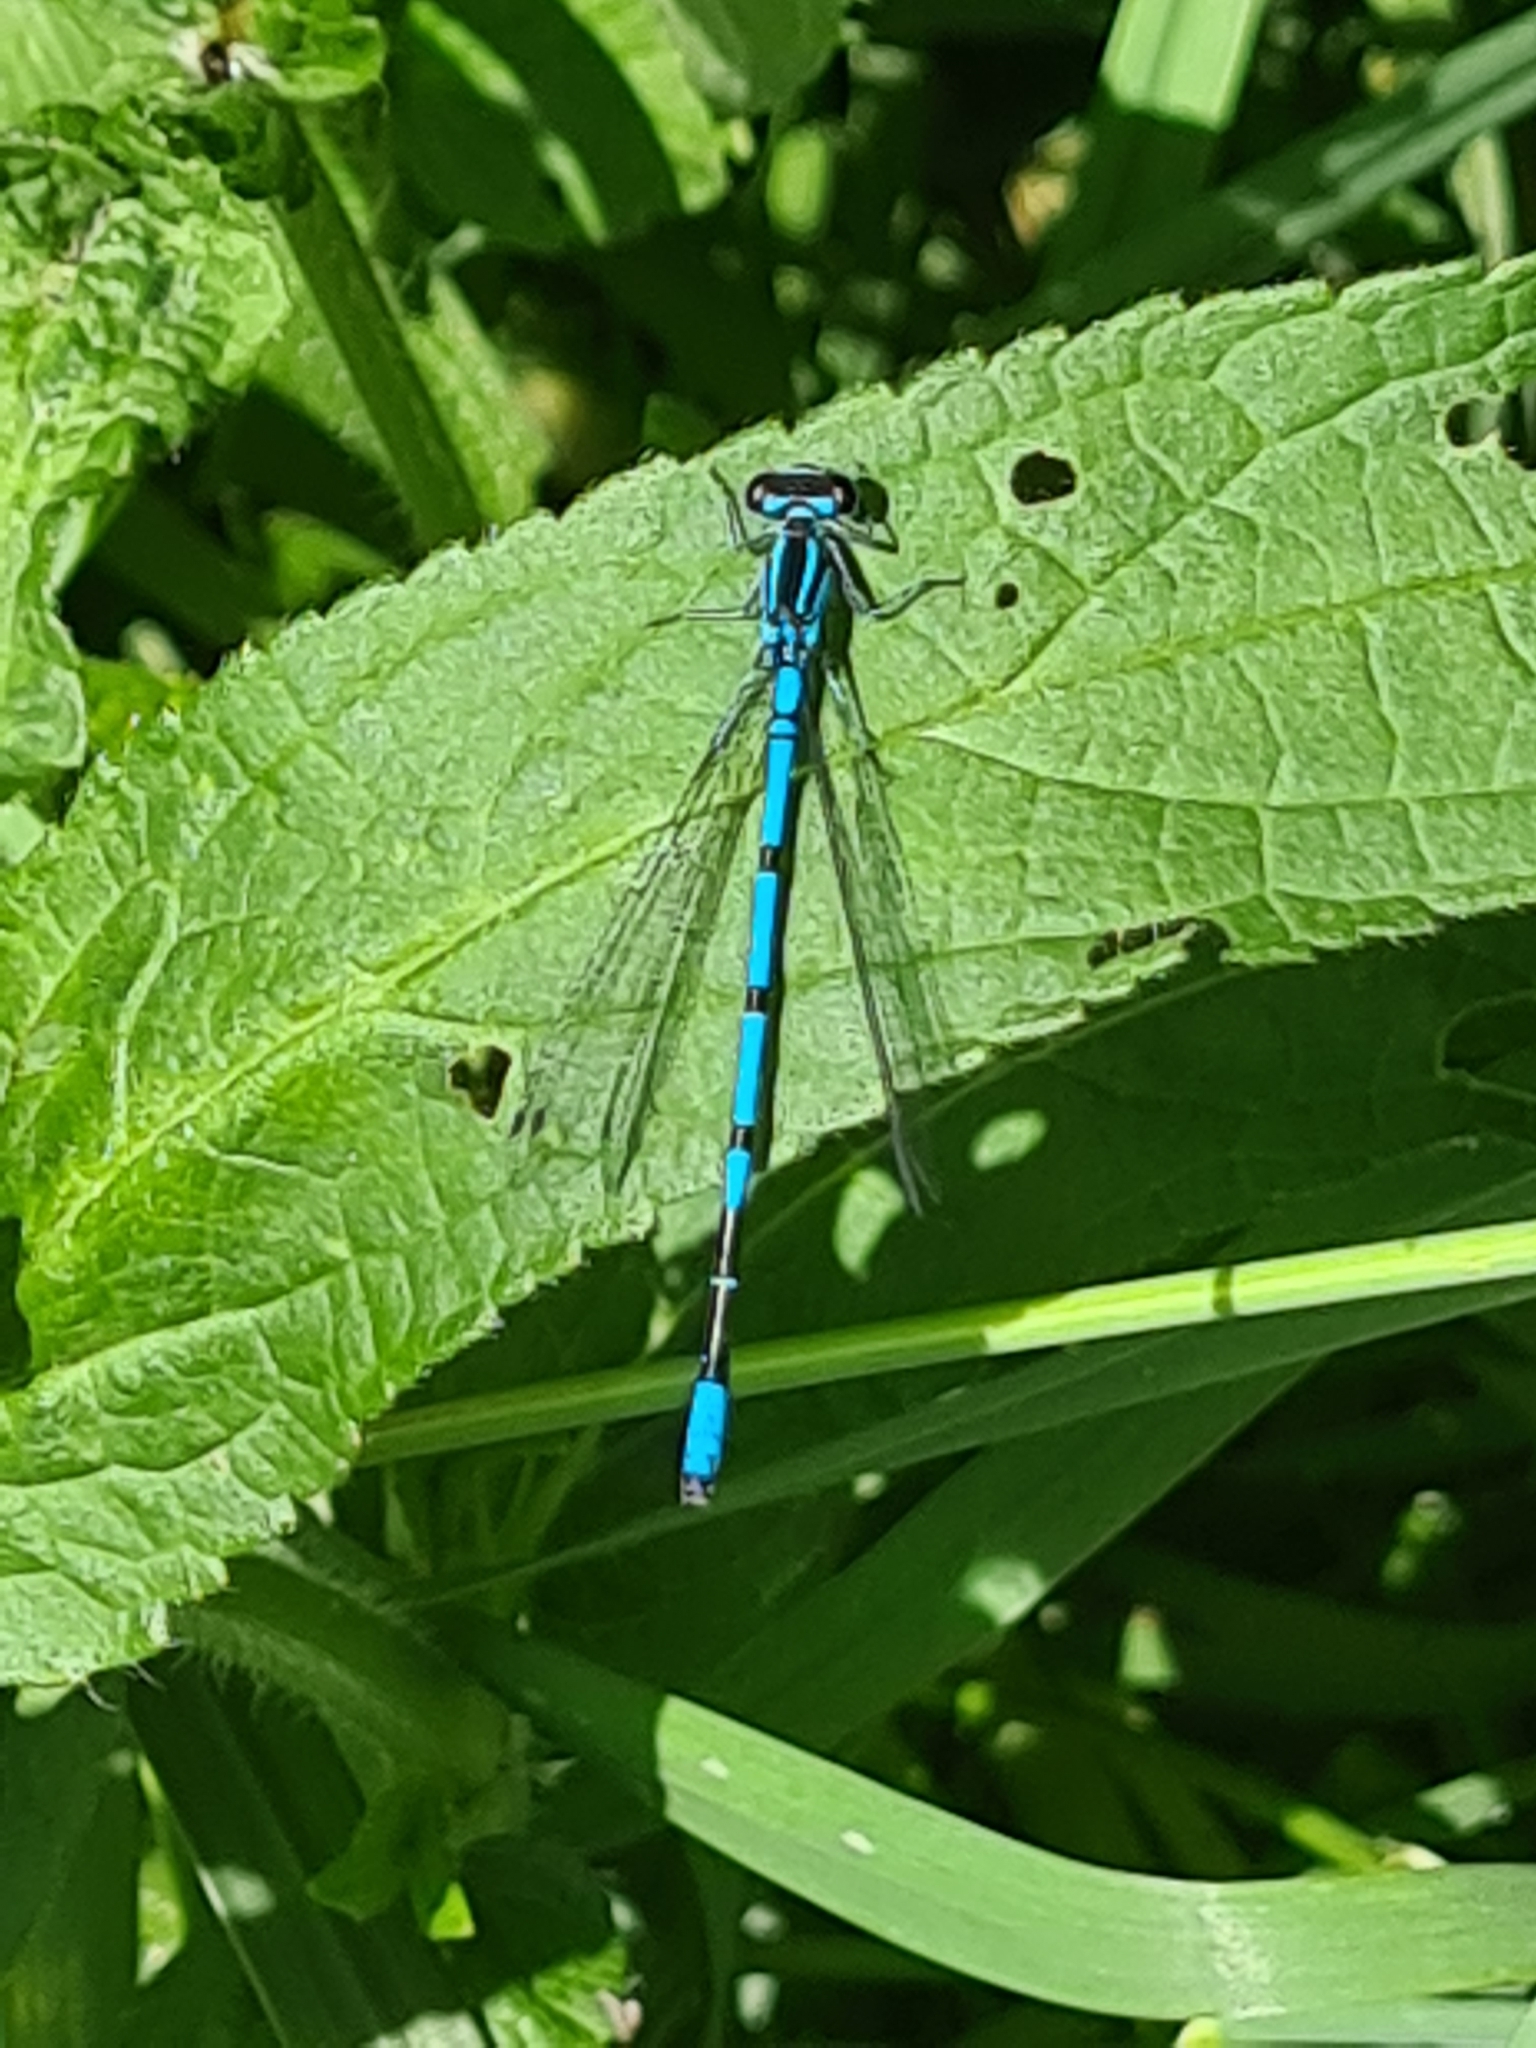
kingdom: Animalia
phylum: Arthropoda
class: Insecta
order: Odonata
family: Coenagrionidae
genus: Coenagrion
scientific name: Coenagrion puella
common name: Azure damselfly
